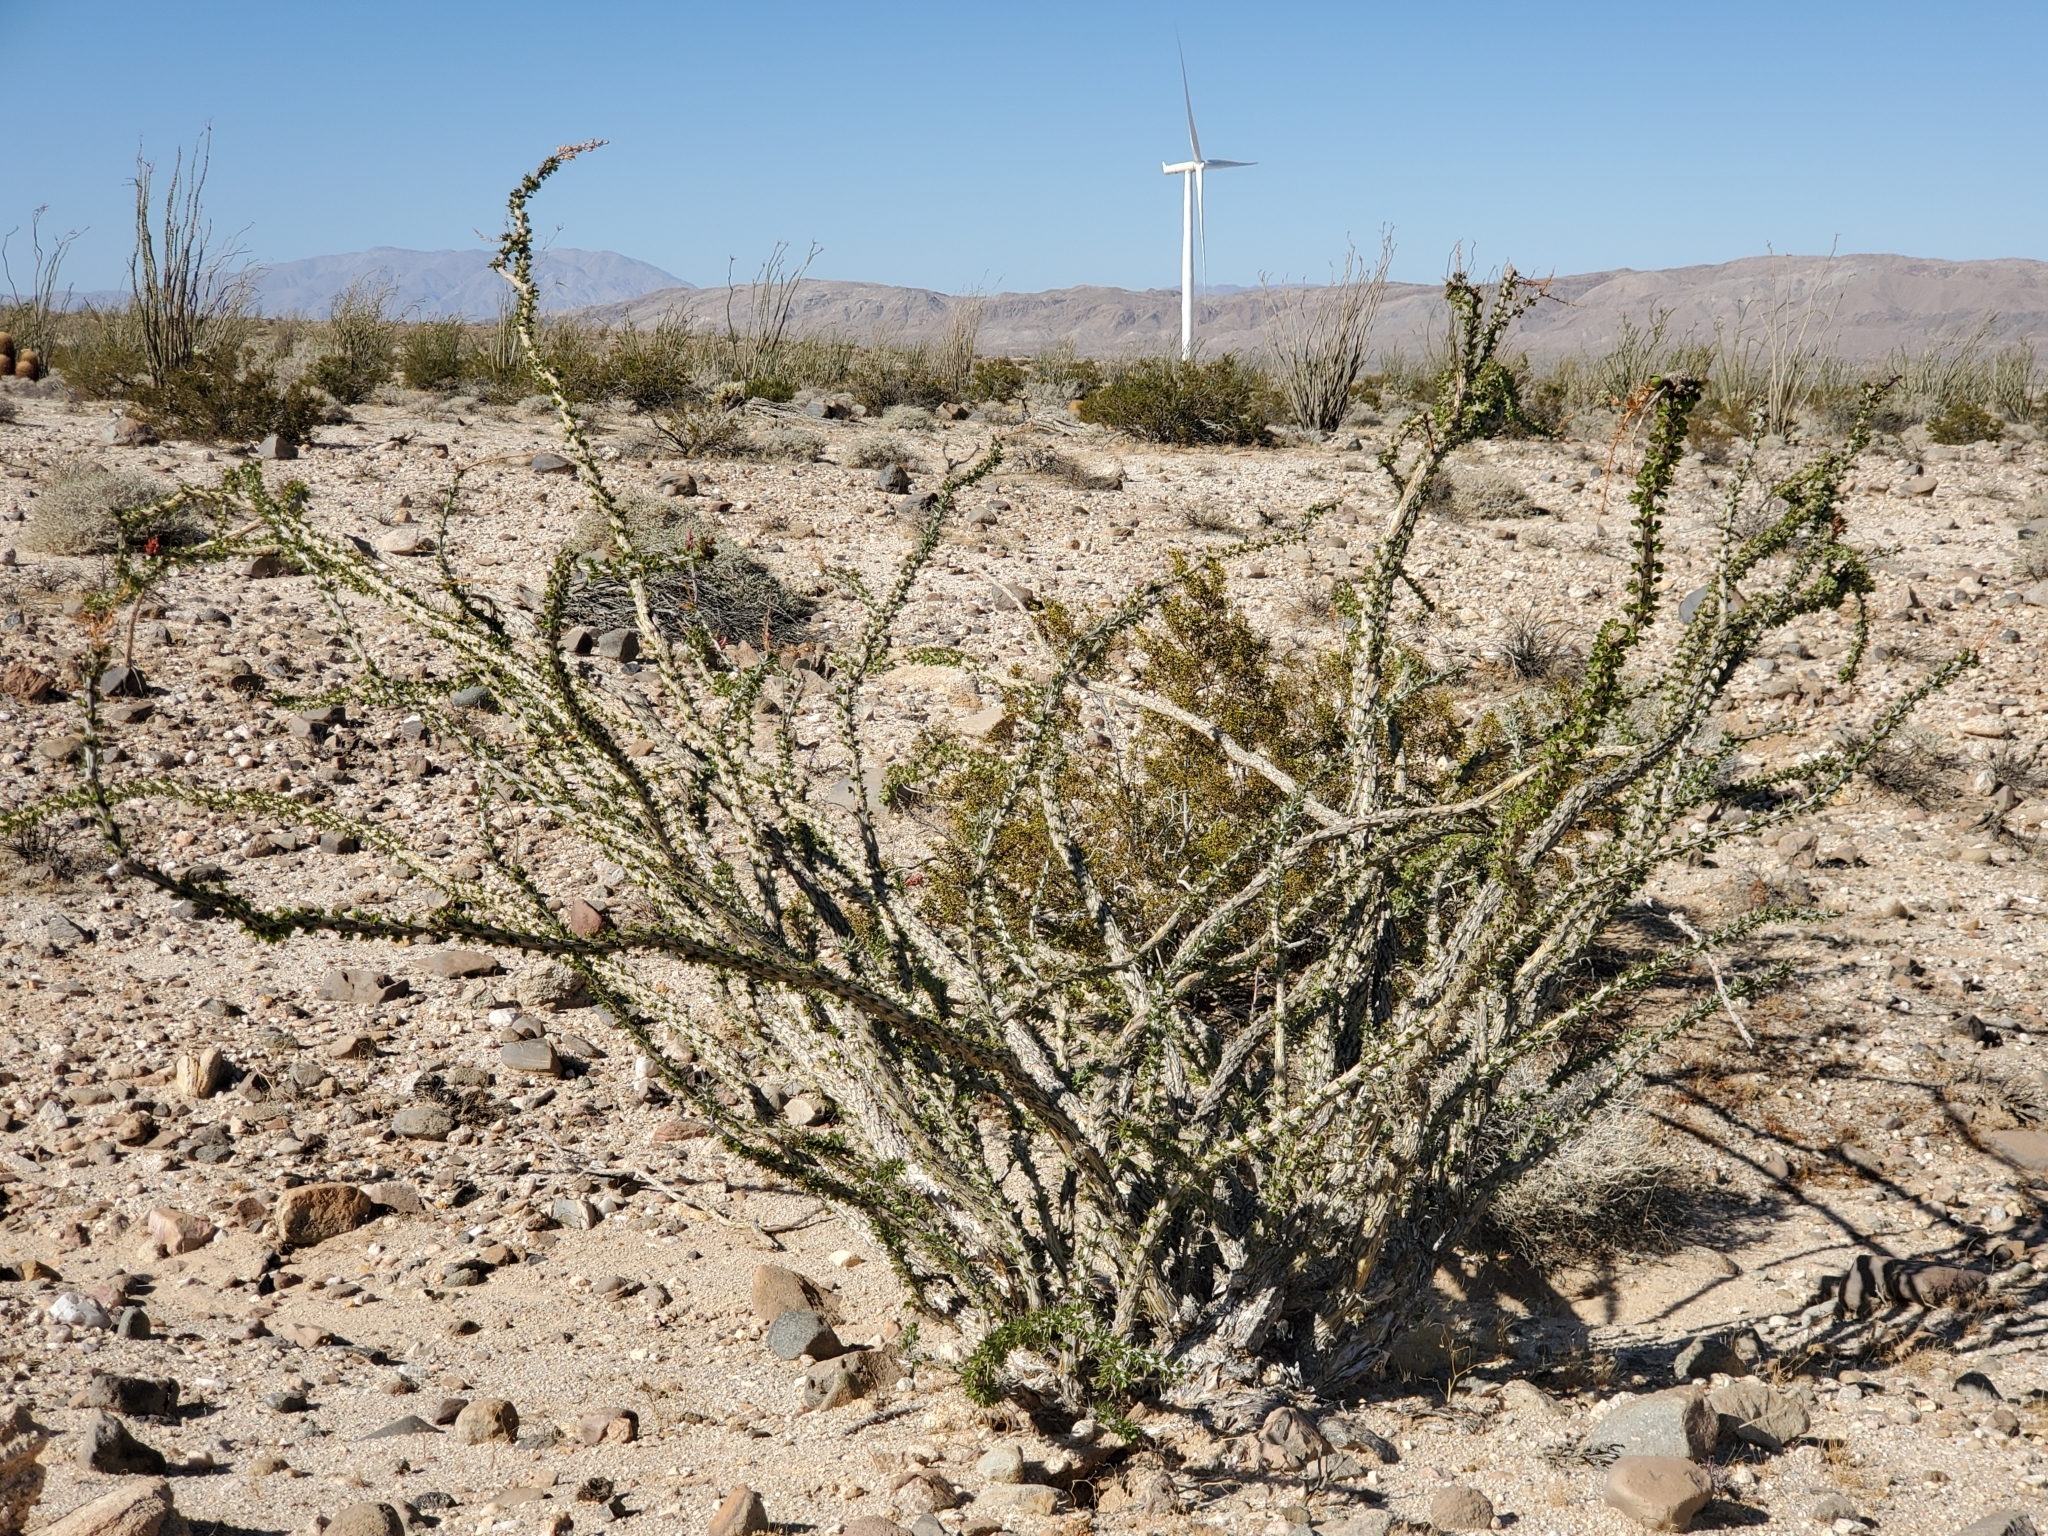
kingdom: Plantae
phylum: Tracheophyta
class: Magnoliopsida
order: Ericales
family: Fouquieriaceae
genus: Fouquieria
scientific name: Fouquieria splendens
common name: Vine-cactus
